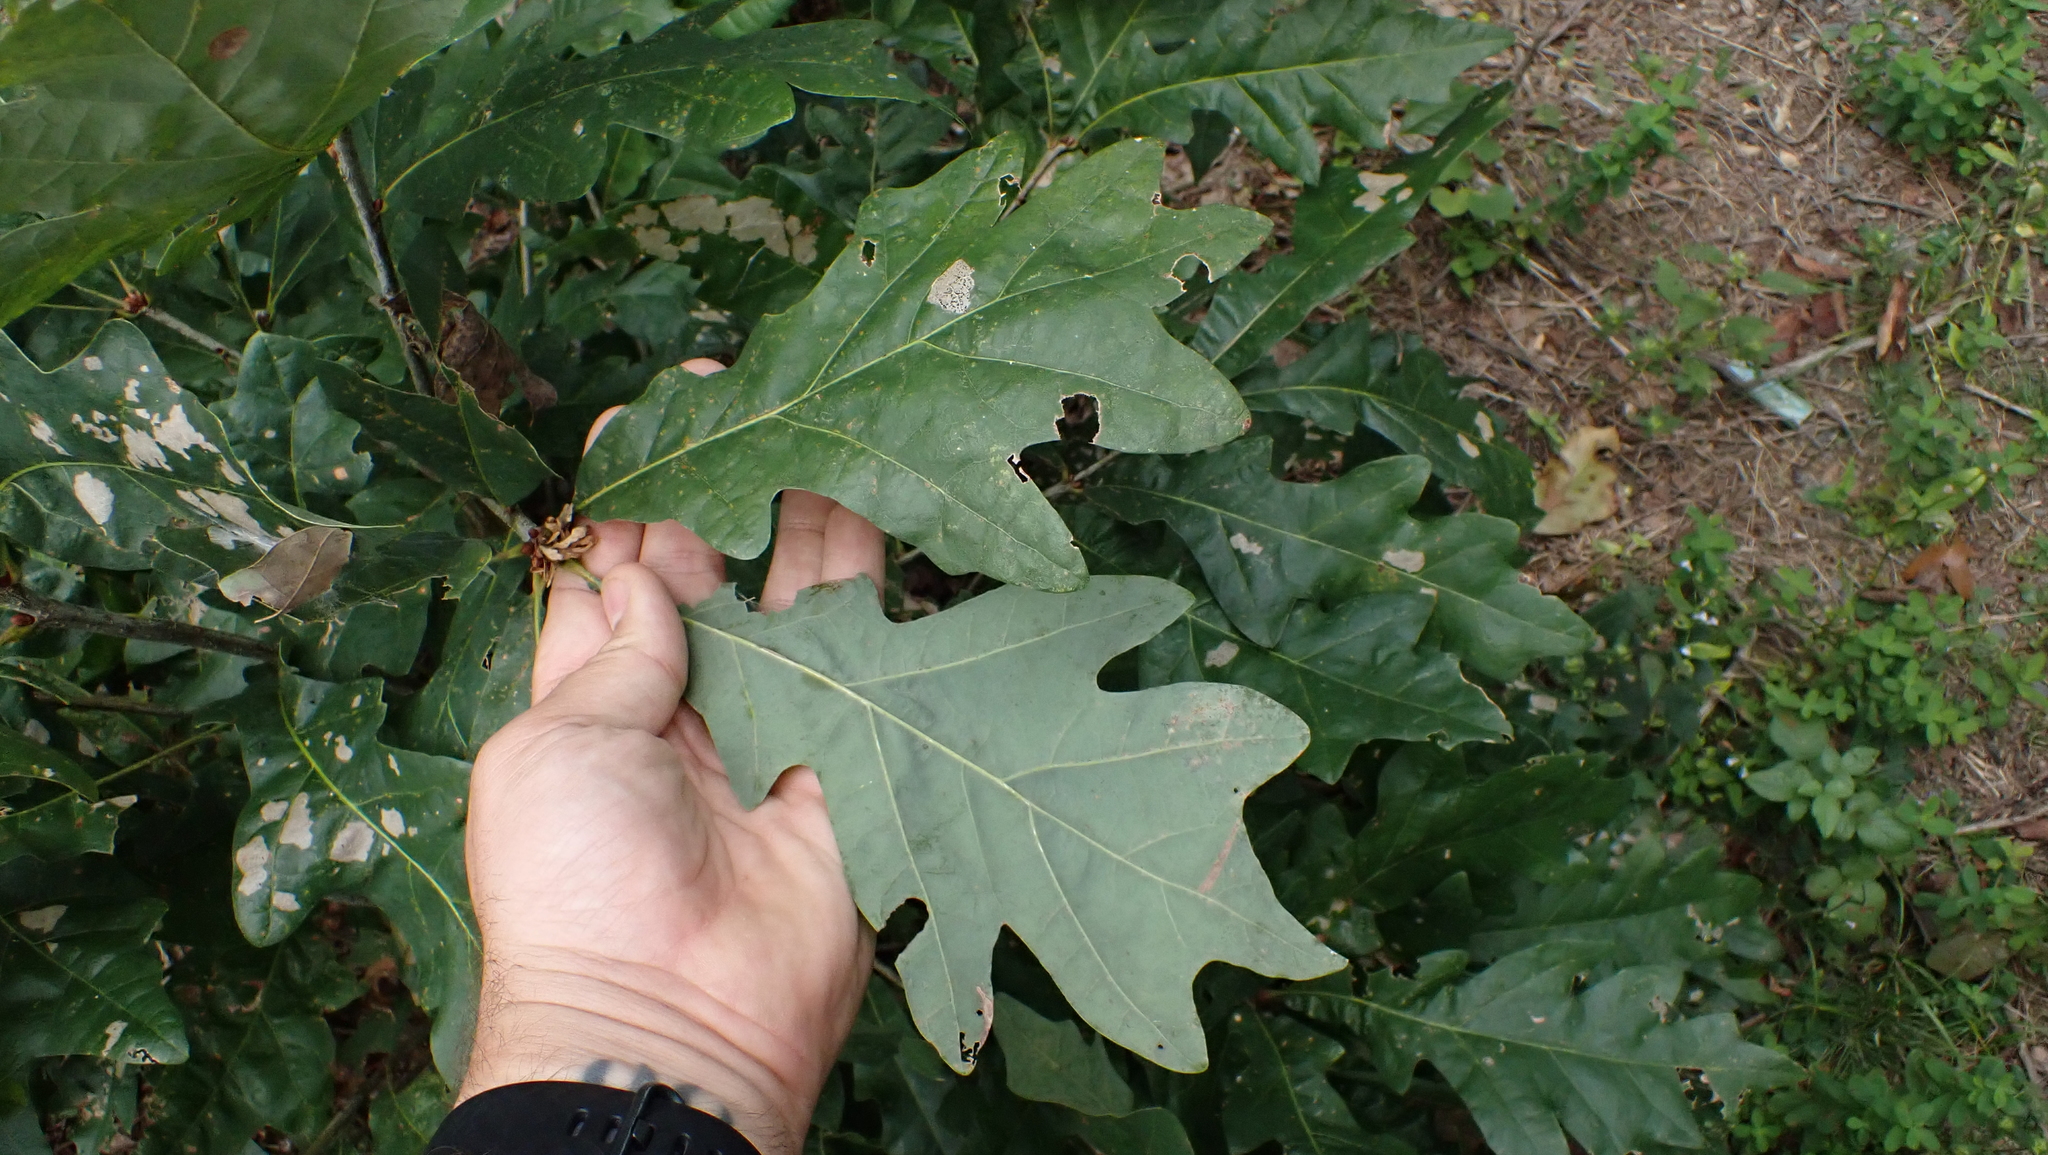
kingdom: Plantae
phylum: Tracheophyta
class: Magnoliopsida
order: Fagales
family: Fagaceae
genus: Quercus
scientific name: Quercus alba
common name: White oak
